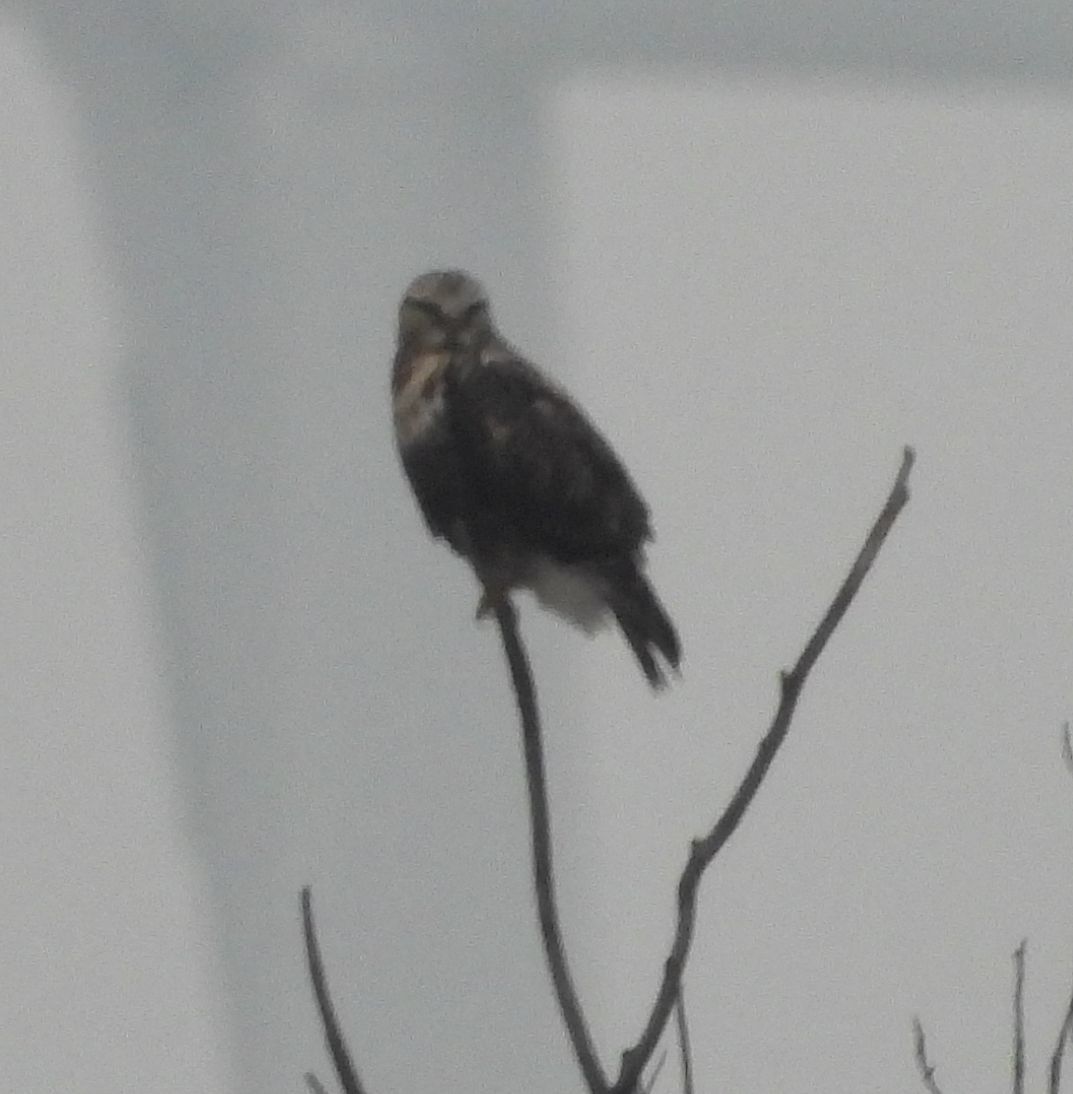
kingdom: Animalia
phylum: Chordata
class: Aves
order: Accipitriformes
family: Accipitridae
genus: Buteo
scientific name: Buteo lagopus
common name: Rough-legged buzzard
